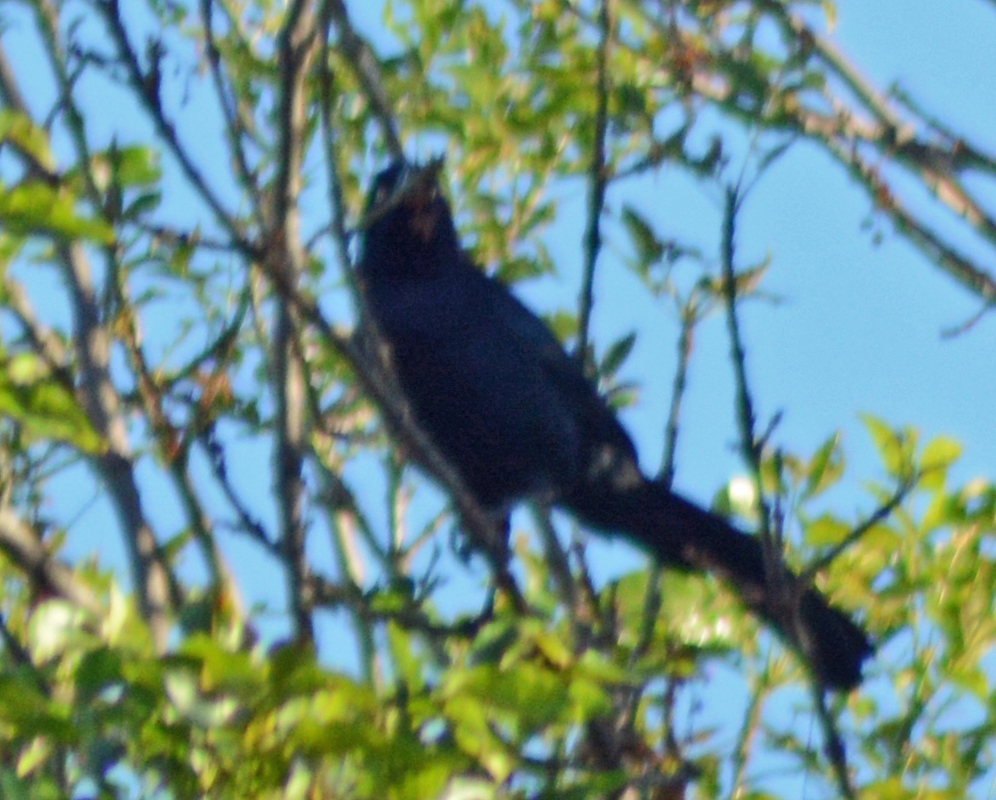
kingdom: Animalia
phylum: Chordata
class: Aves
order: Passeriformes
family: Icteridae
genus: Quiscalus
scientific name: Quiscalus mexicanus
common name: Great-tailed grackle
